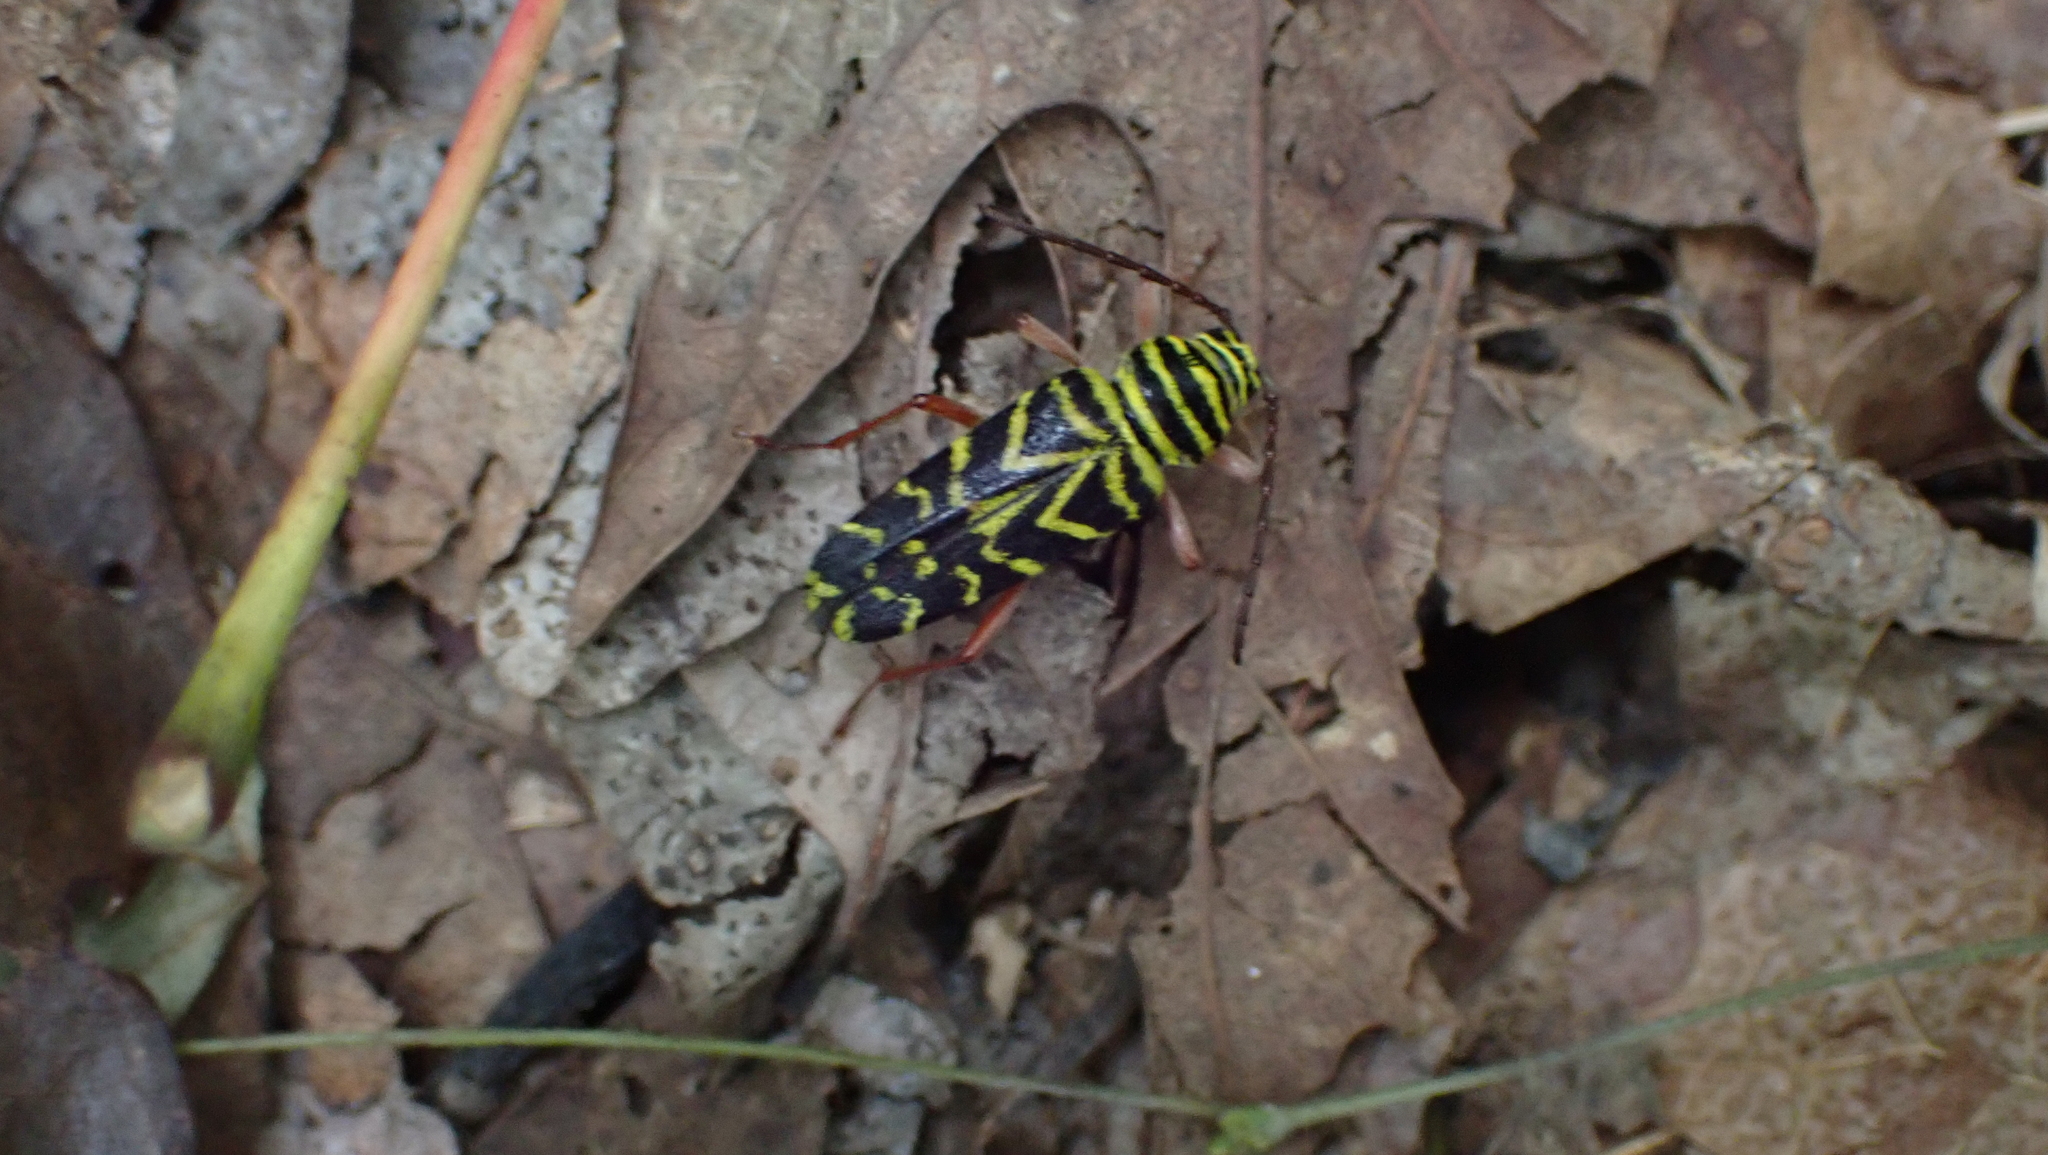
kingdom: Animalia
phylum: Arthropoda
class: Insecta
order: Coleoptera
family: Cerambycidae
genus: Megacyllene
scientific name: Megacyllene robiniae
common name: Locust borer
